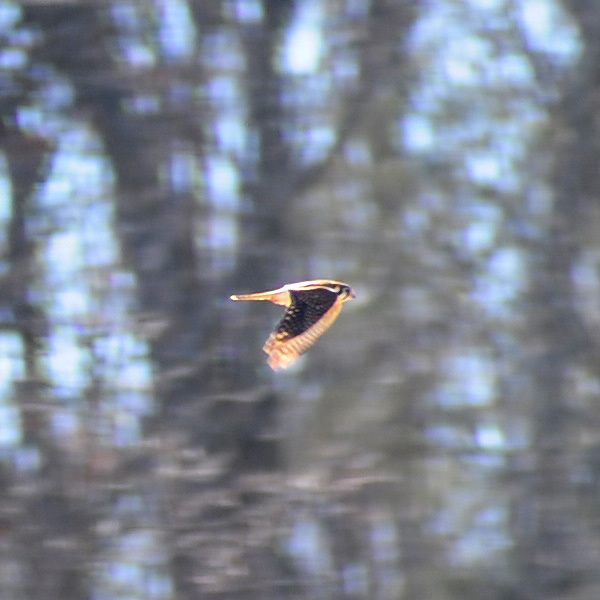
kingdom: Animalia
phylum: Chordata
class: Aves
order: Falconiformes
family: Falconidae
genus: Falco
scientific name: Falco sparverius
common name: American kestrel
